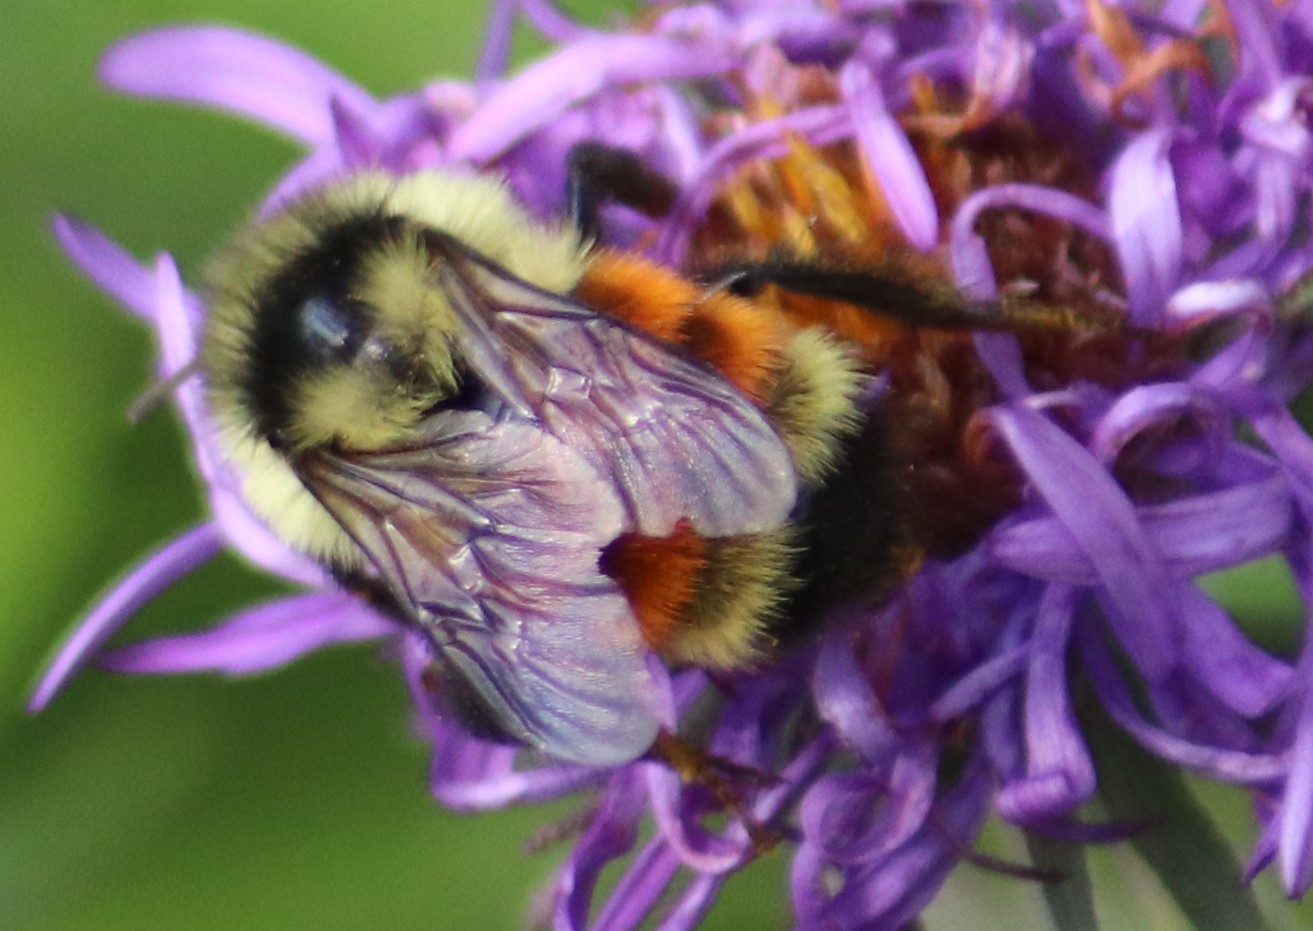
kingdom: Animalia
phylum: Arthropoda
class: Insecta
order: Hymenoptera
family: Apidae
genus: Bombus
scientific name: Bombus ternarius
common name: Tri-colored bumble bee
